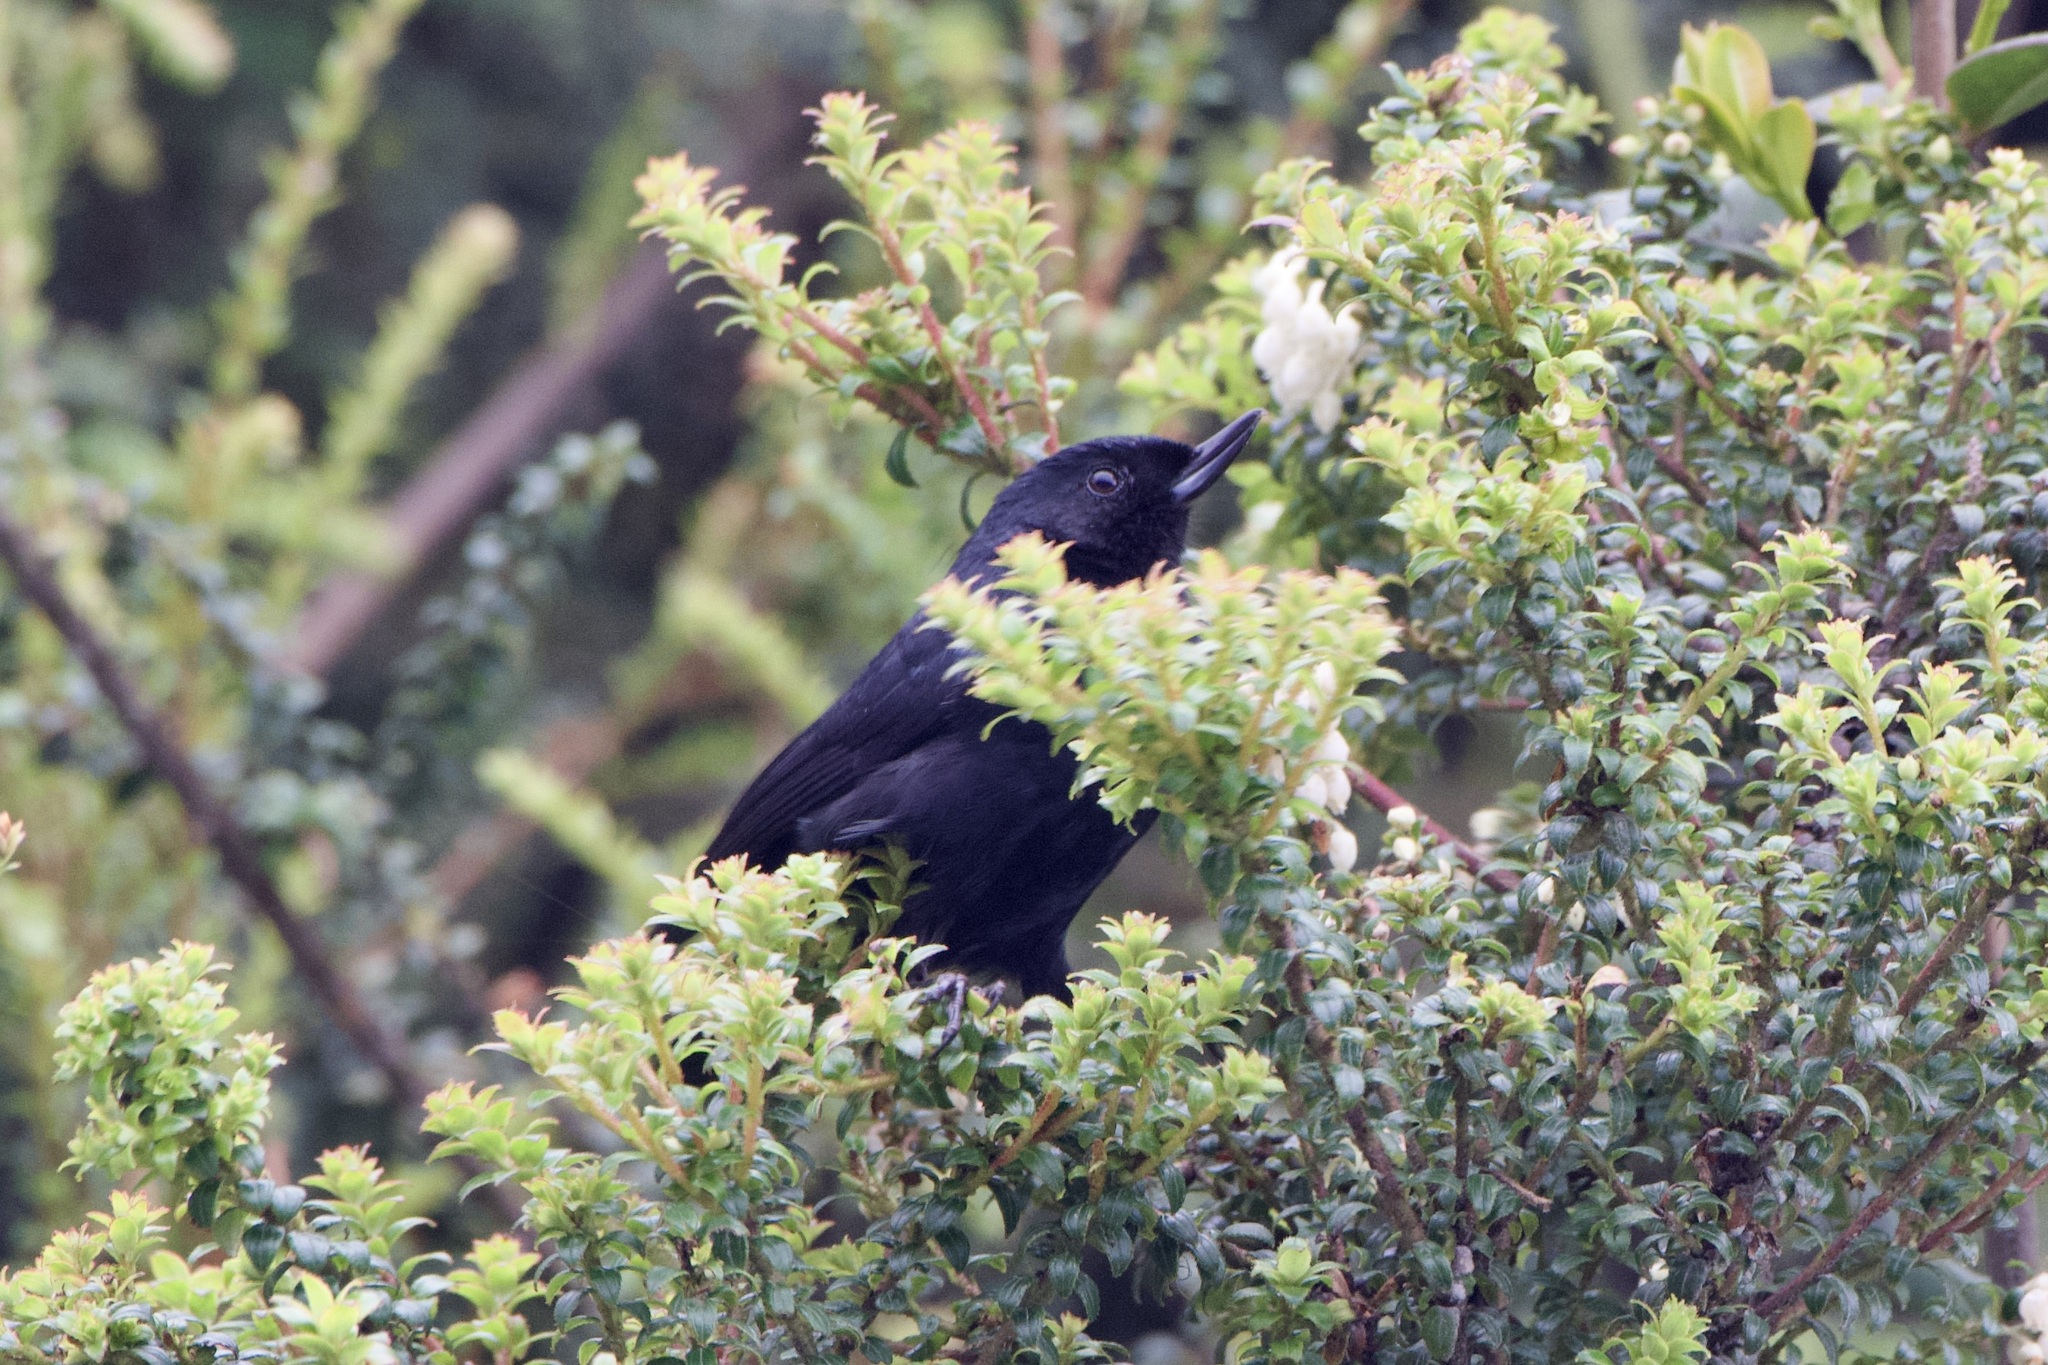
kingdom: Animalia
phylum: Chordata
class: Aves
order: Passeriformes
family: Thraupidae
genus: Diglossa
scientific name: Diglossa lafresnayii
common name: Glossy flowerpiercer
